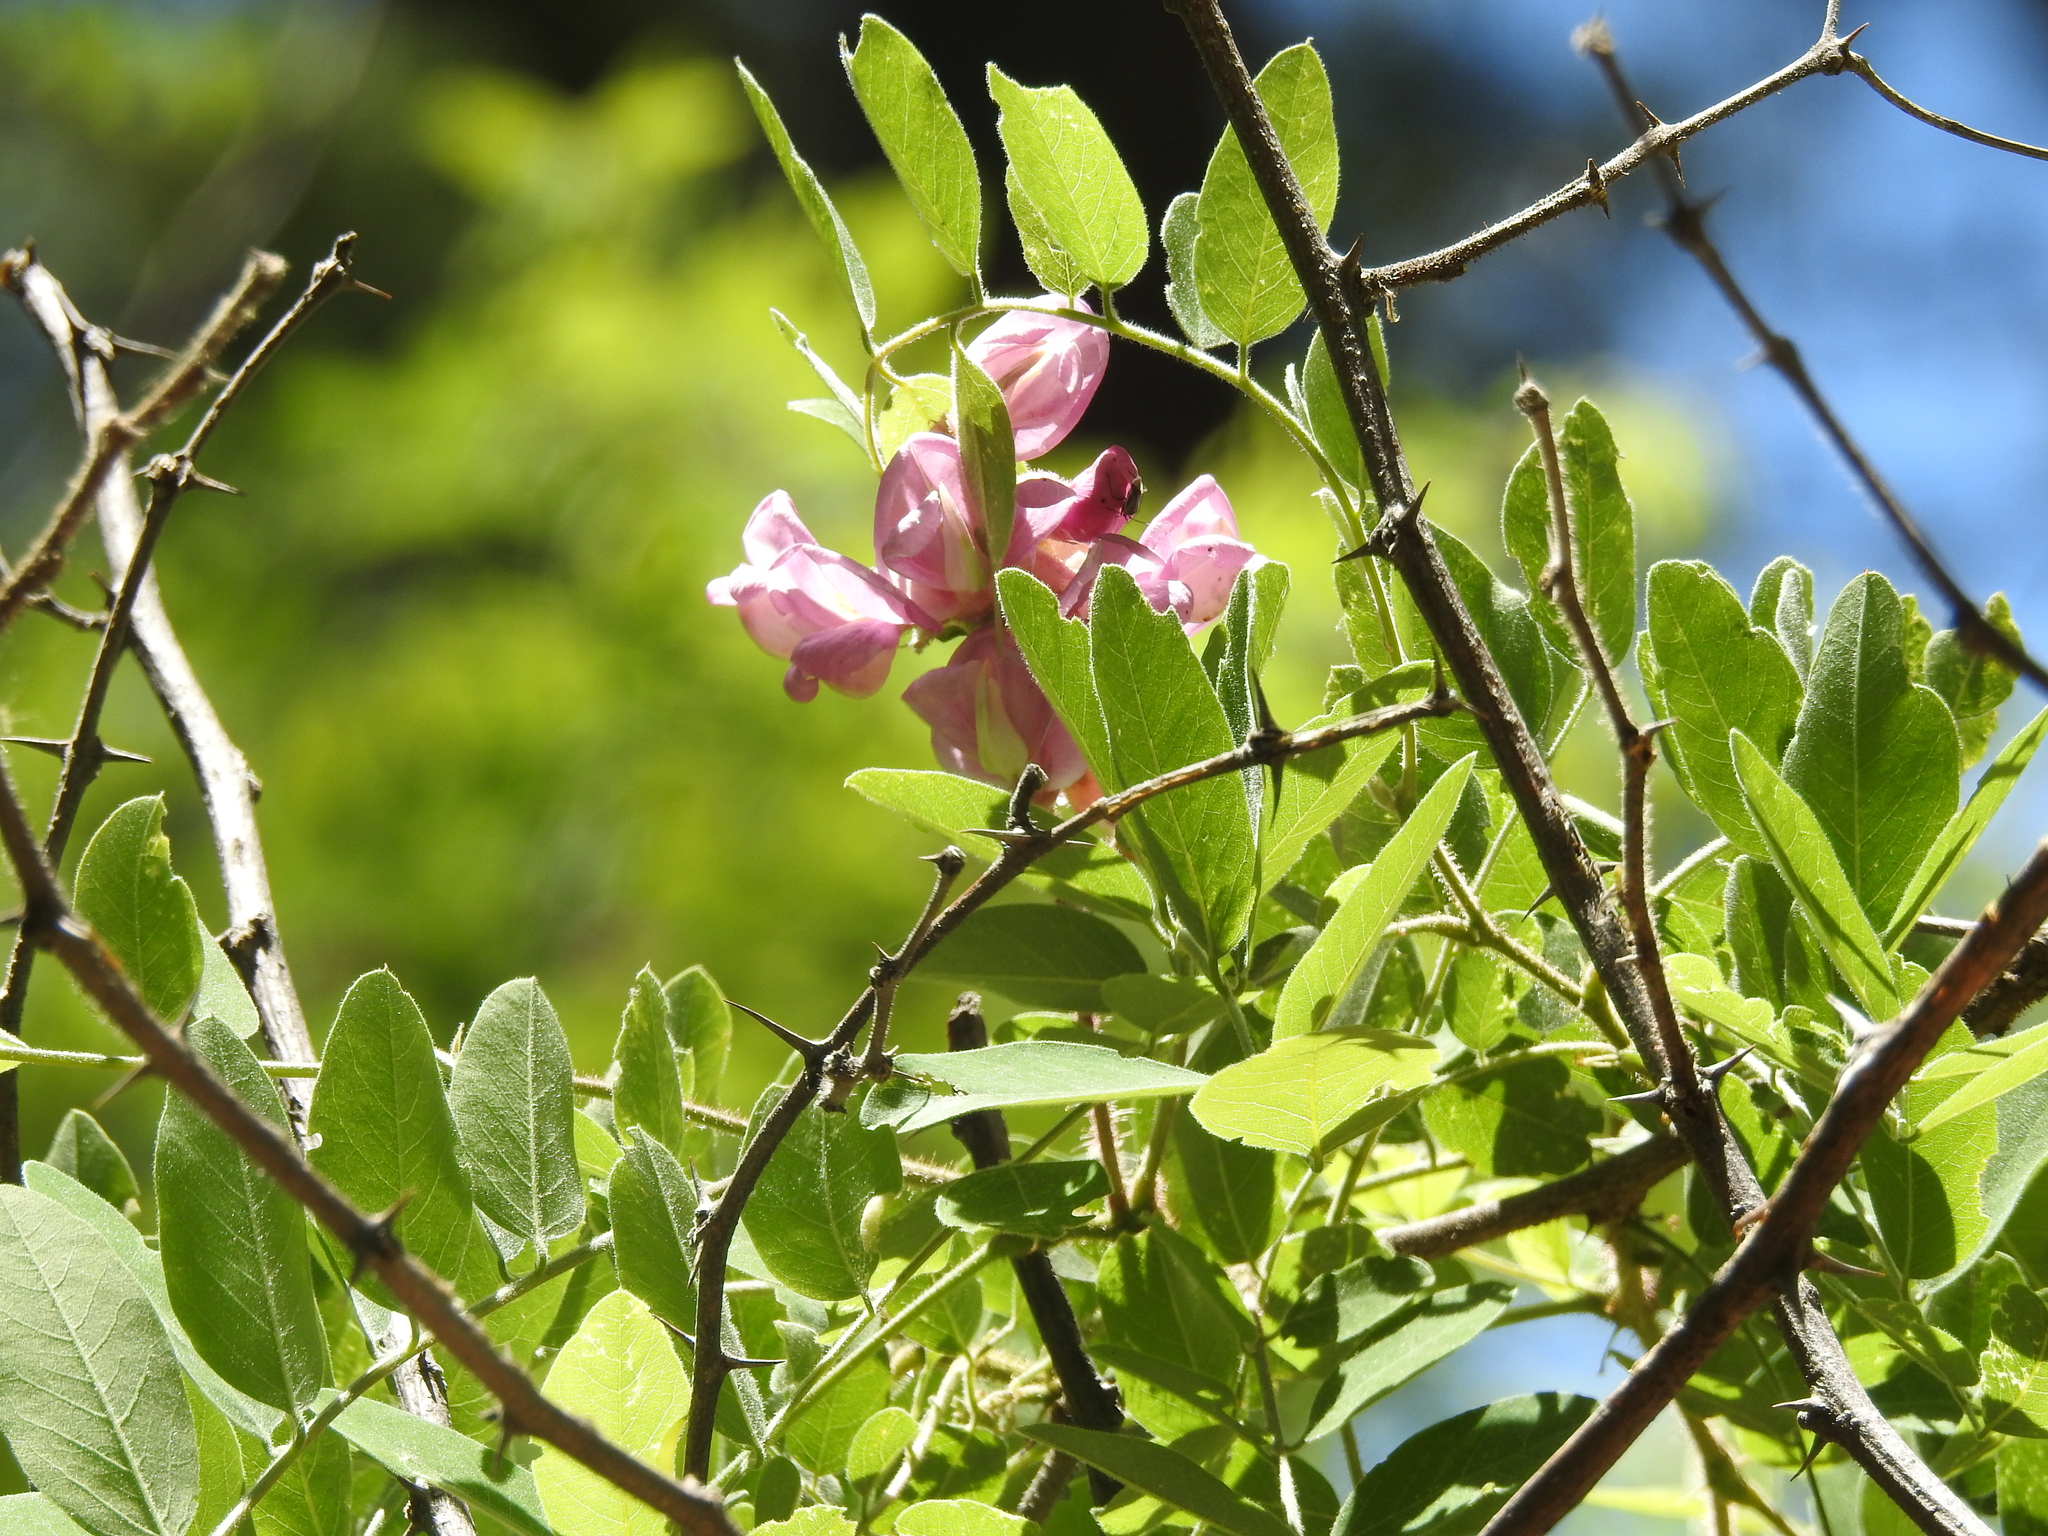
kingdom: Plantae
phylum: Tracheophyta
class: Magnoliopsida
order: Fabales
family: Fabaceae
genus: Robinia
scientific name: Robinia neomexicana
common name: New mexico locust
